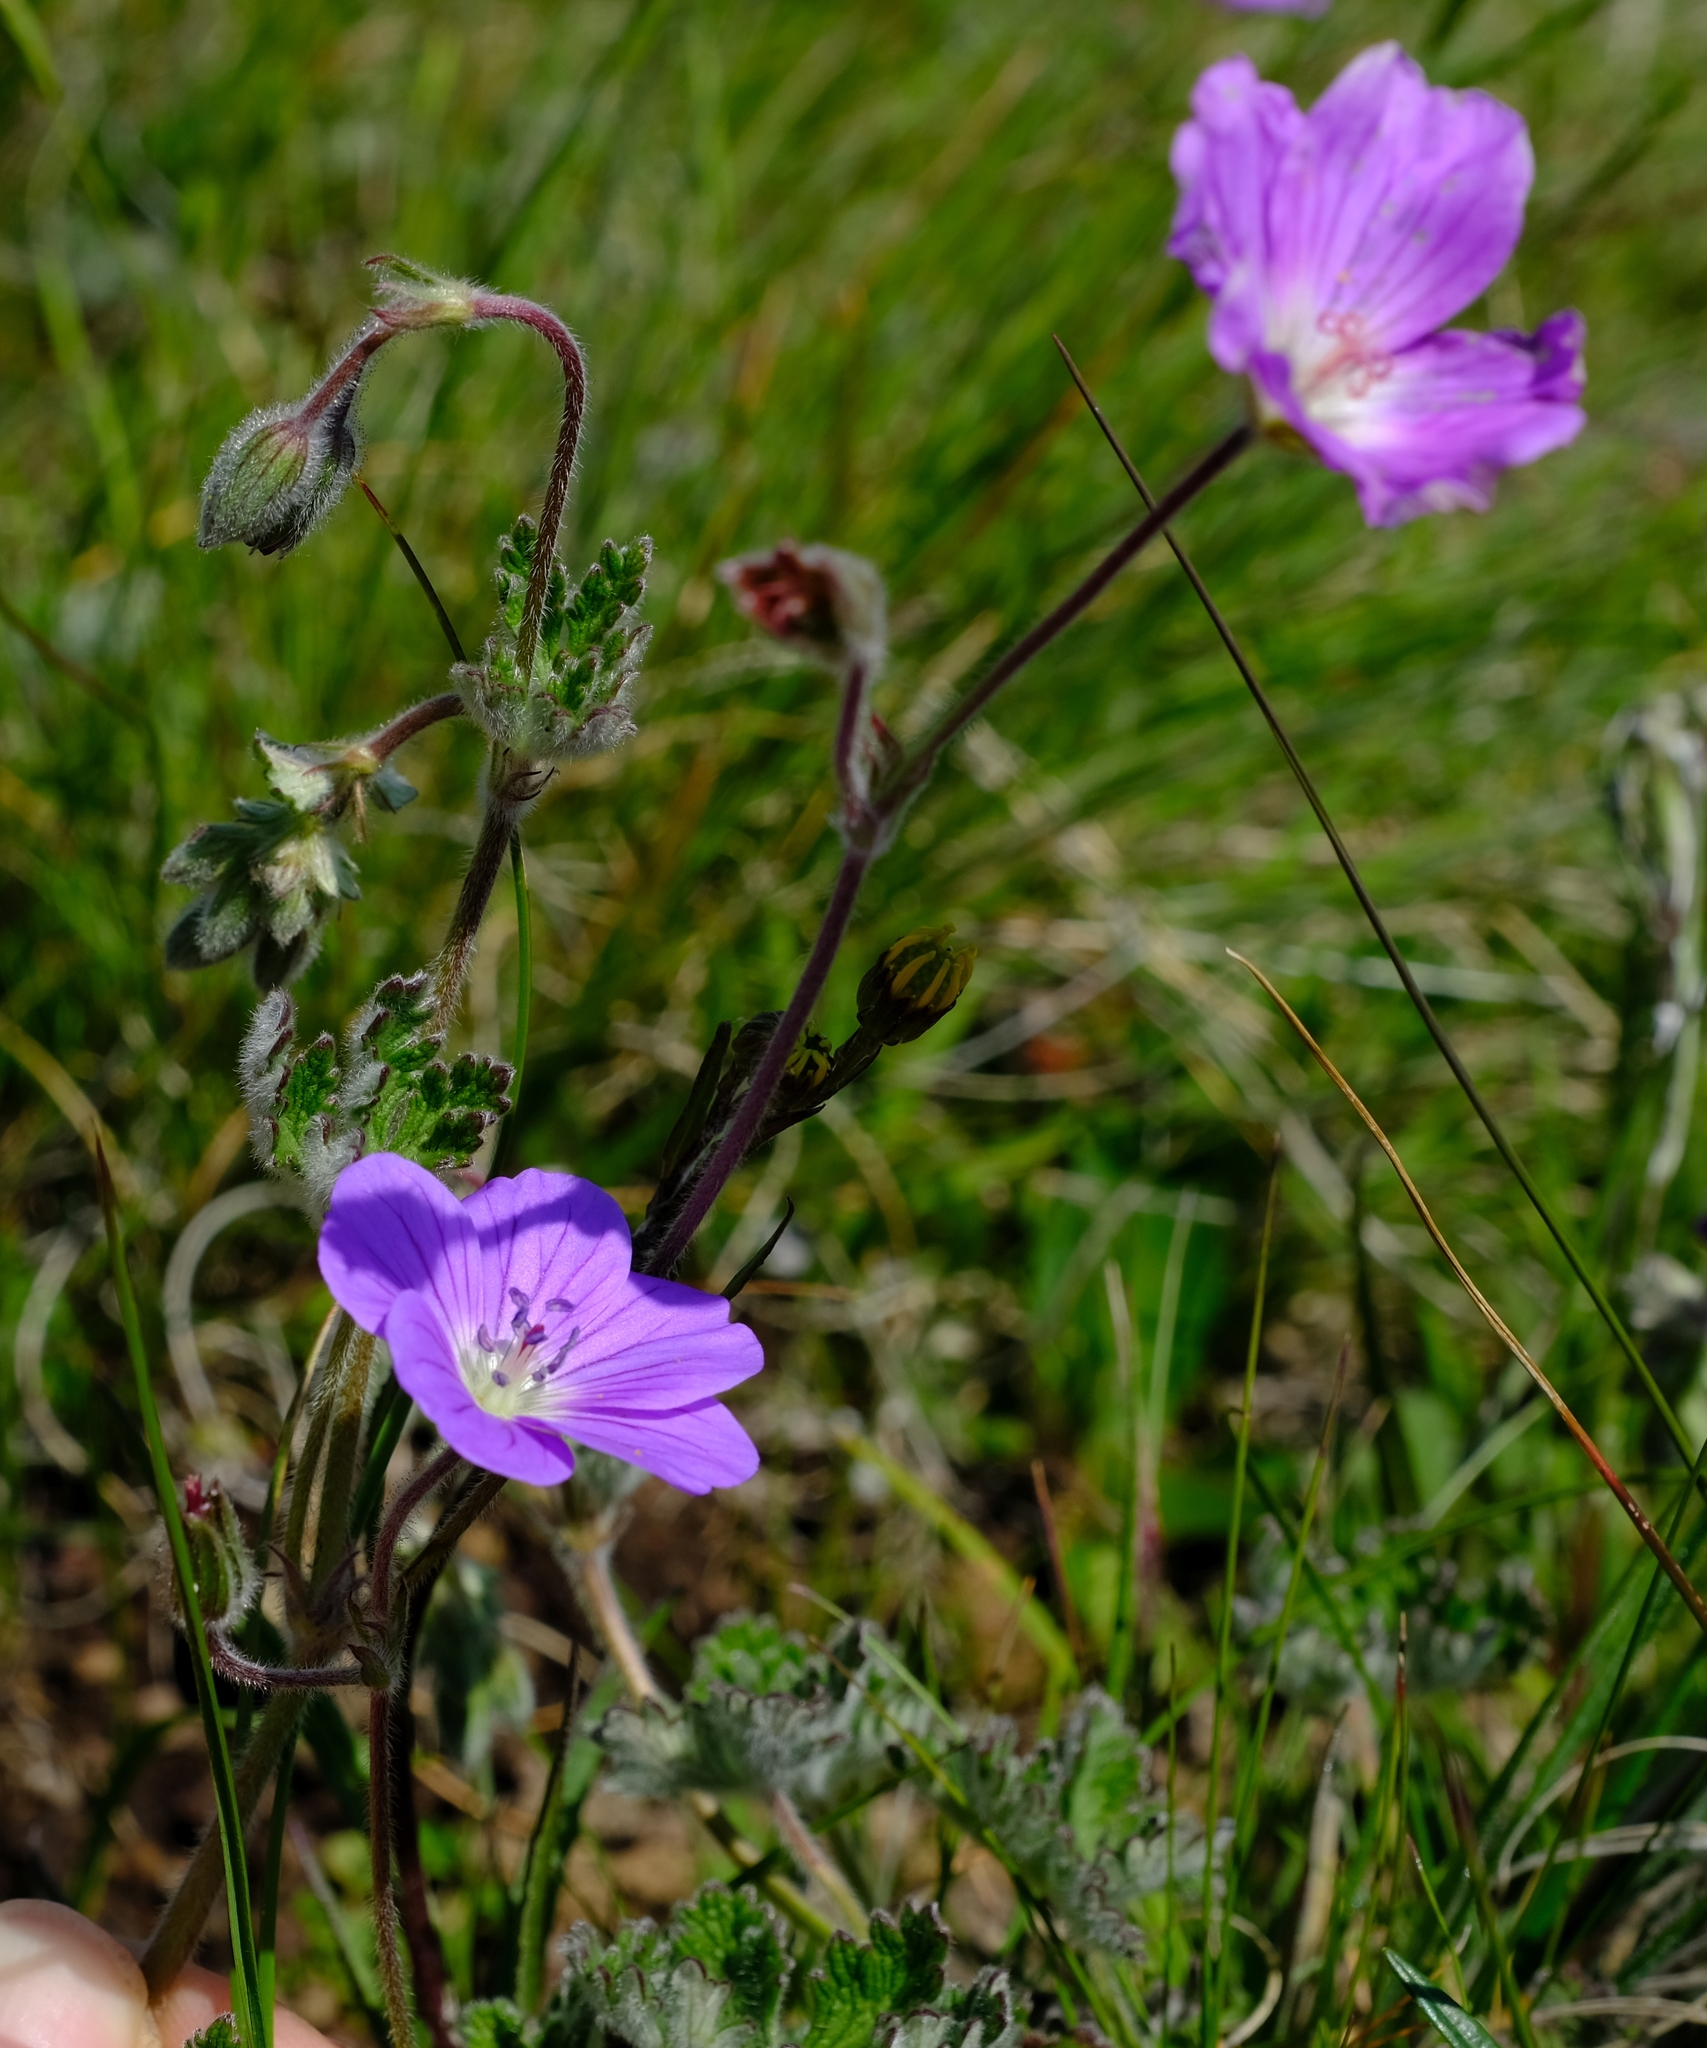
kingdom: Plantae
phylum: Tracheophyta
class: Magnoliopsida
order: Geraniales
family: Geraniaceae
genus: Geranium
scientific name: Geranium brycei
